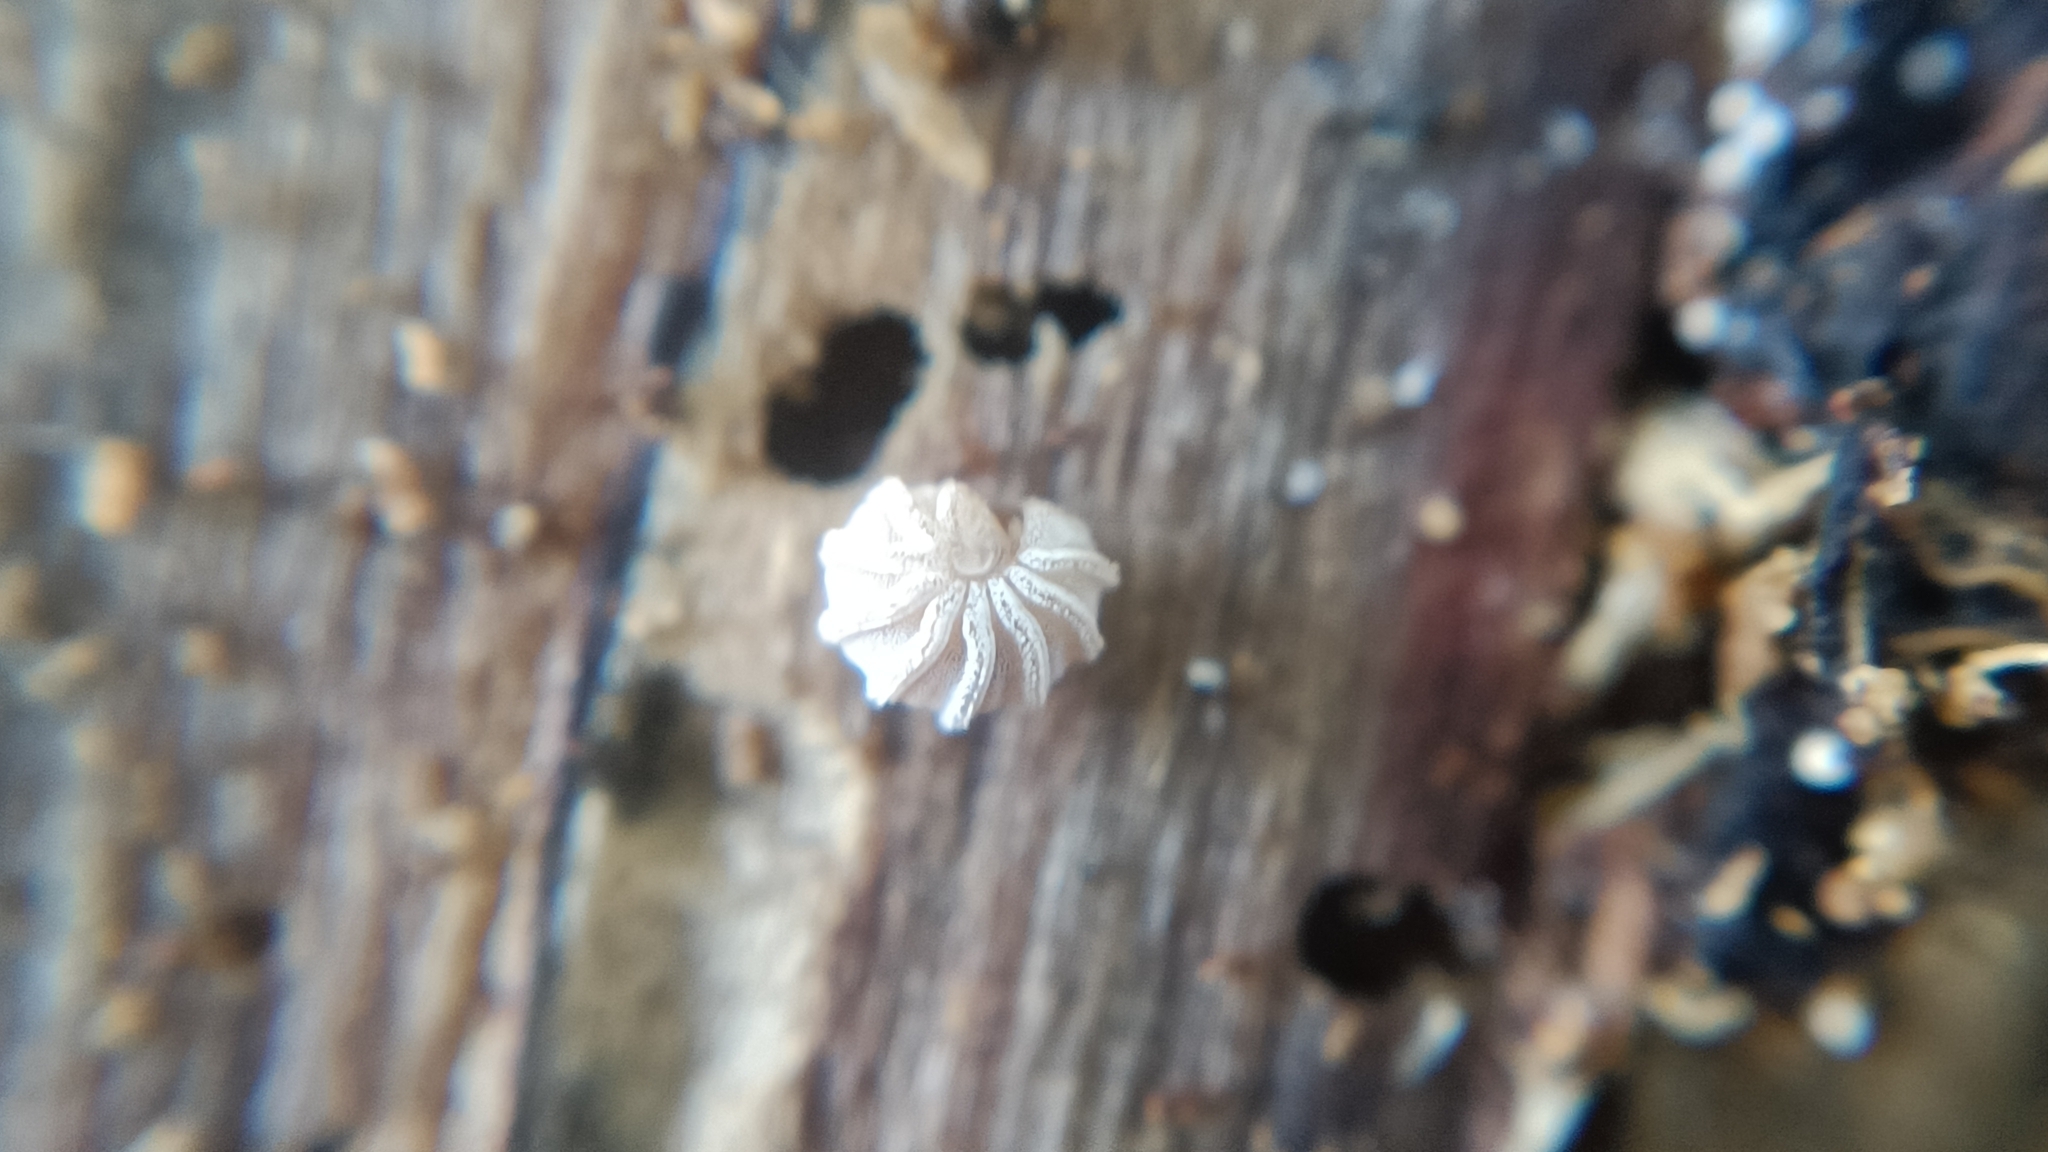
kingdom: Animalia
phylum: Arthropoda
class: Diplopoda
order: Glomerida
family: Glomeridae
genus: Trachysphaera
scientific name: Trachysphaera lobata
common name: Sand pill-millipede
